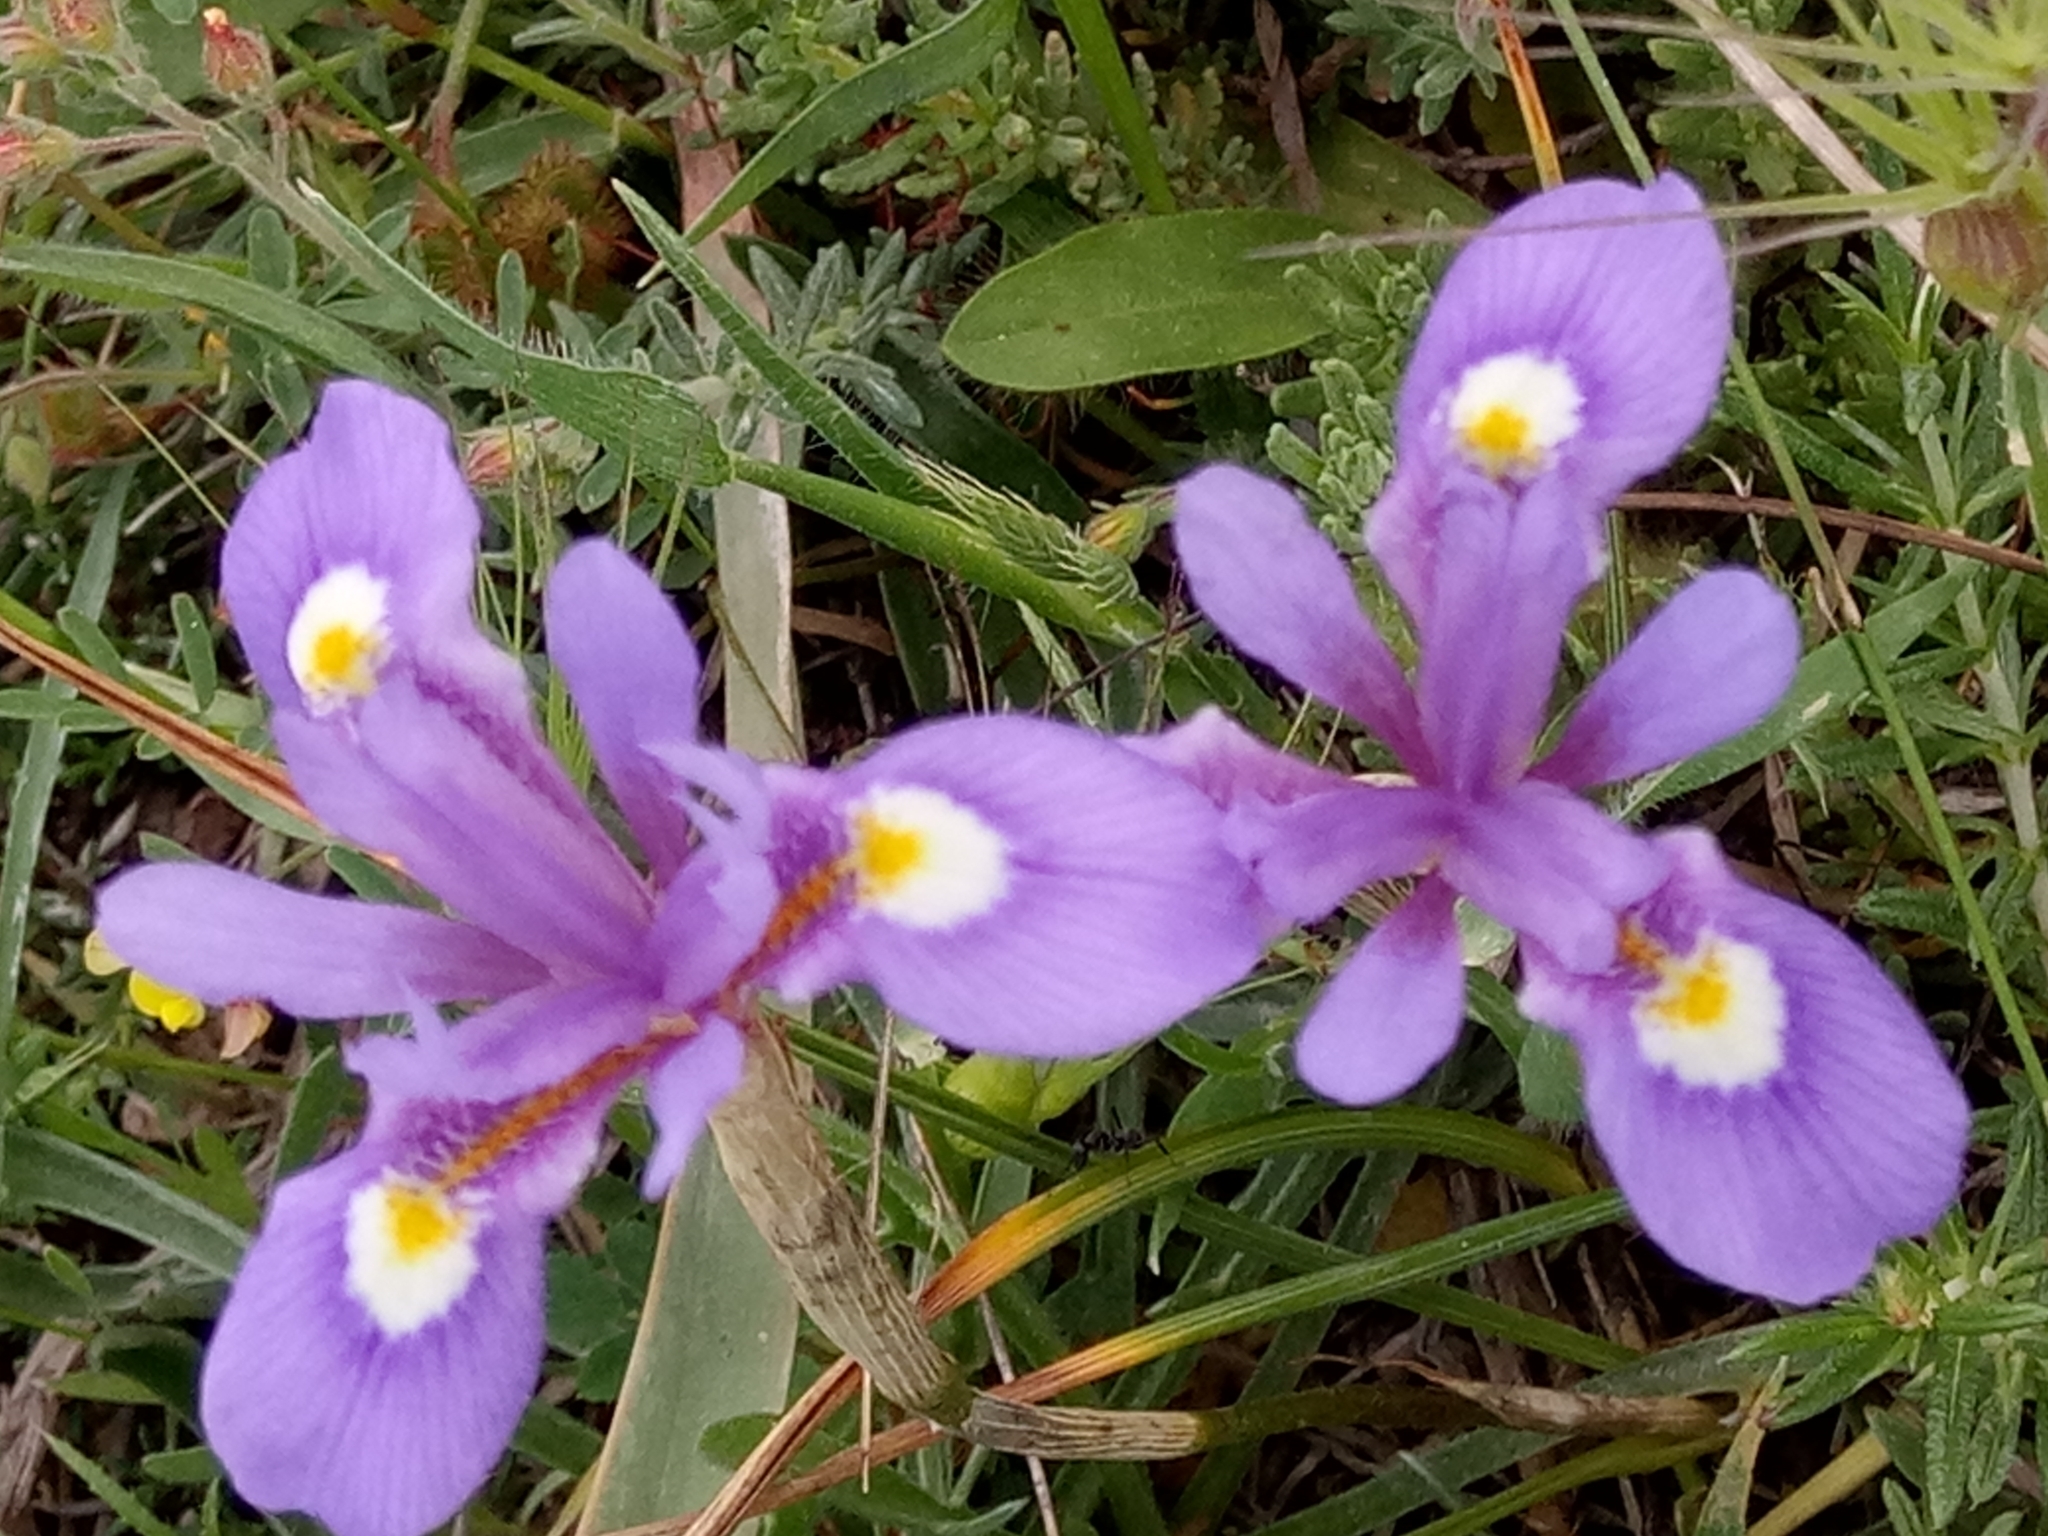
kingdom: Plantae
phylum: Tracheophyta
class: Liliopsida
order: Asparagales
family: Iridaceae
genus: Moraea
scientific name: Moraea sisyrinchium
